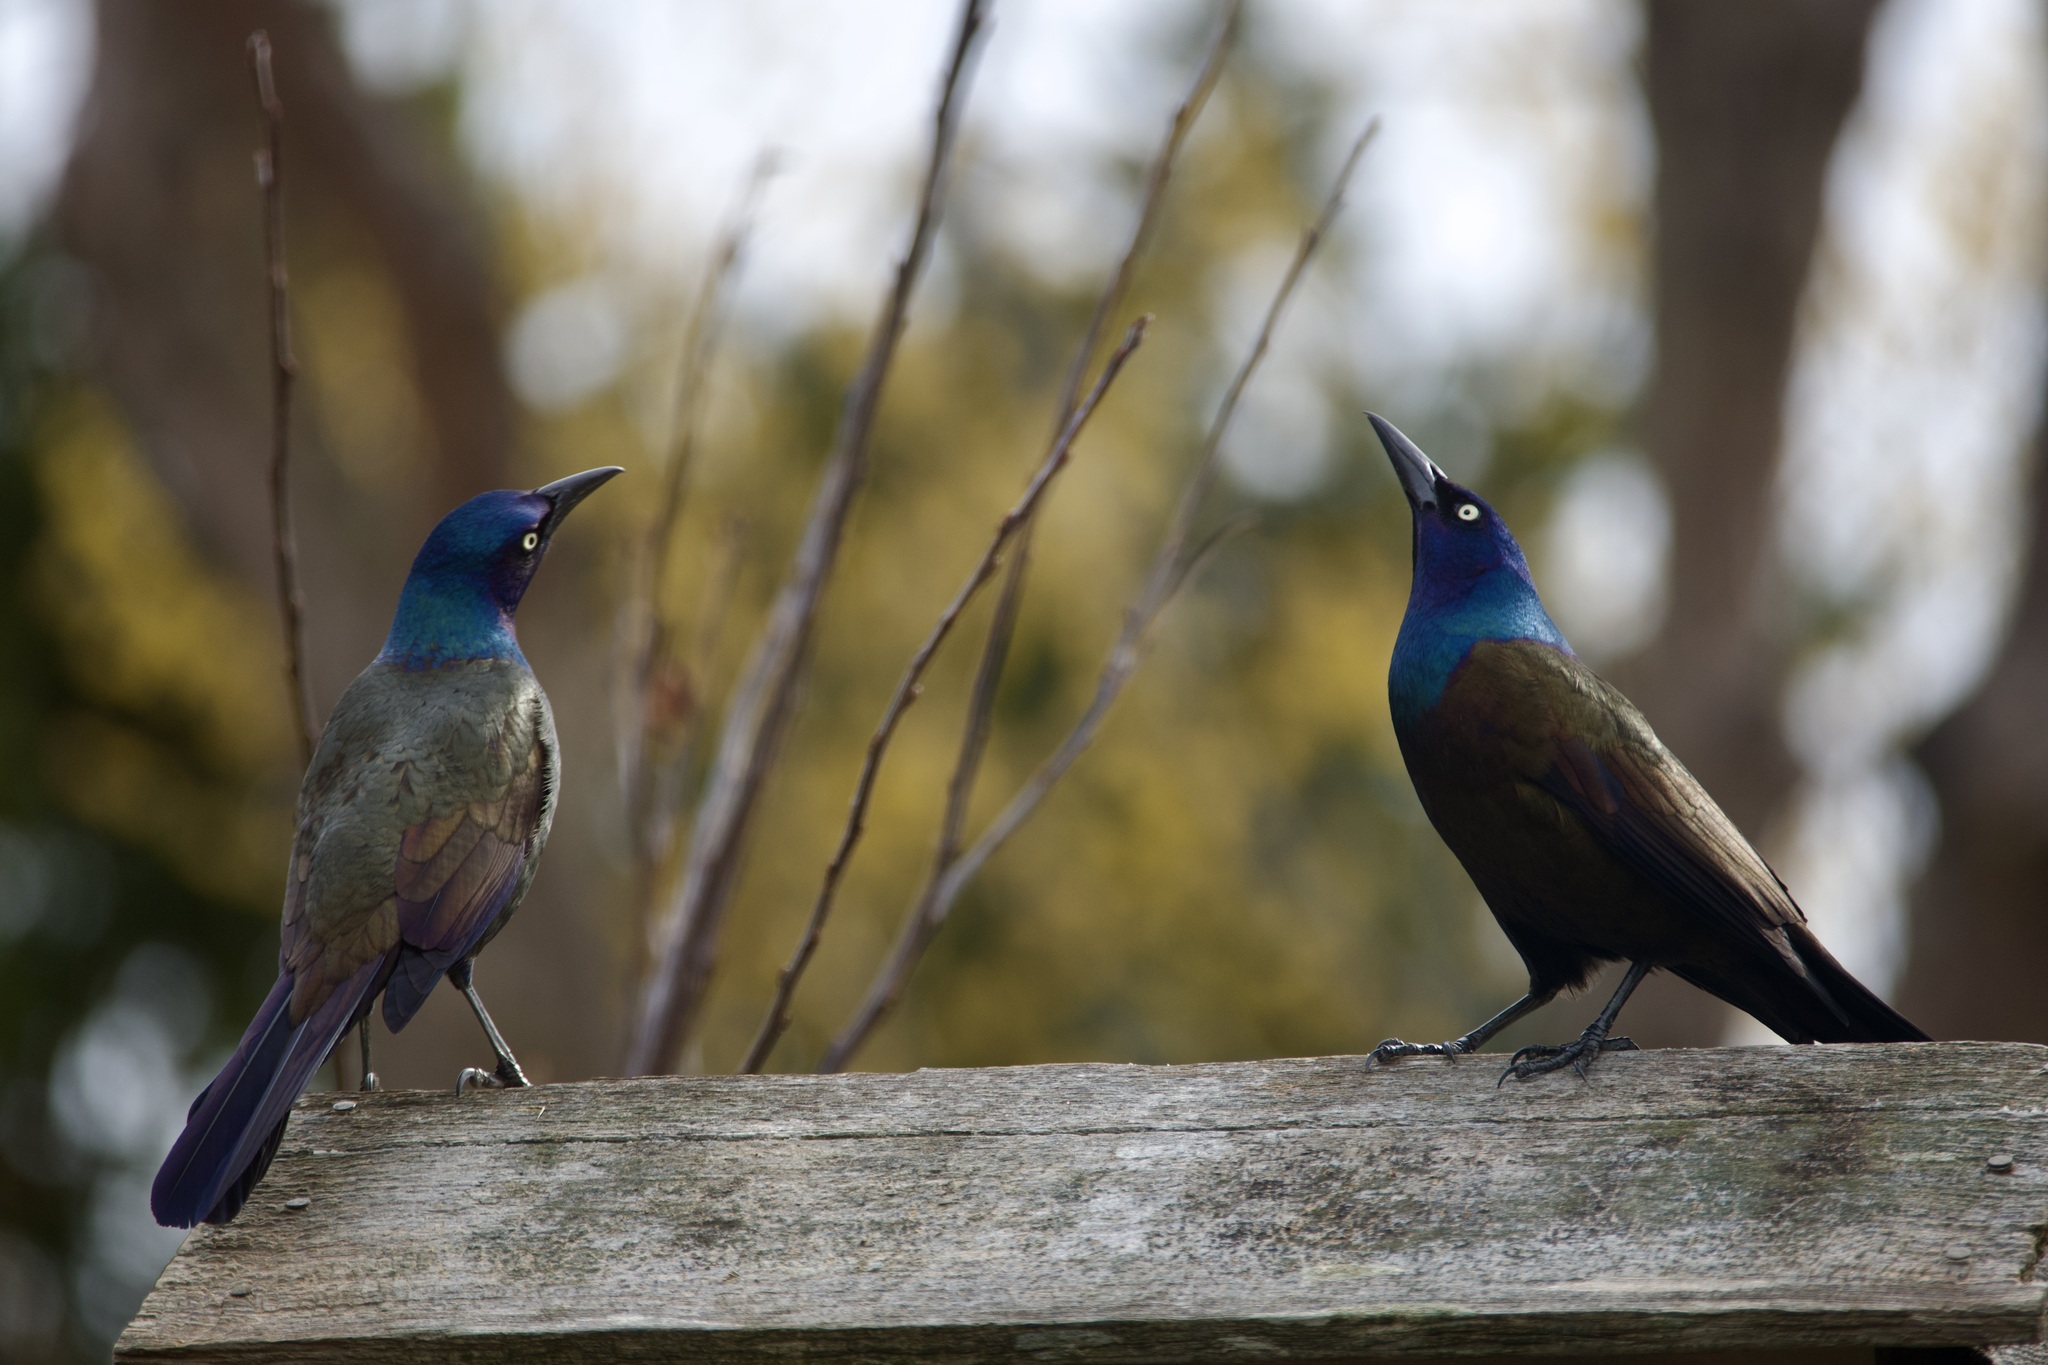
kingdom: Animalia
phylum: Chordata
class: Aves
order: Passeriformes
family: Icteridae
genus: Quiscalus
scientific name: Quiscalus quiscula
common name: Common grackle
